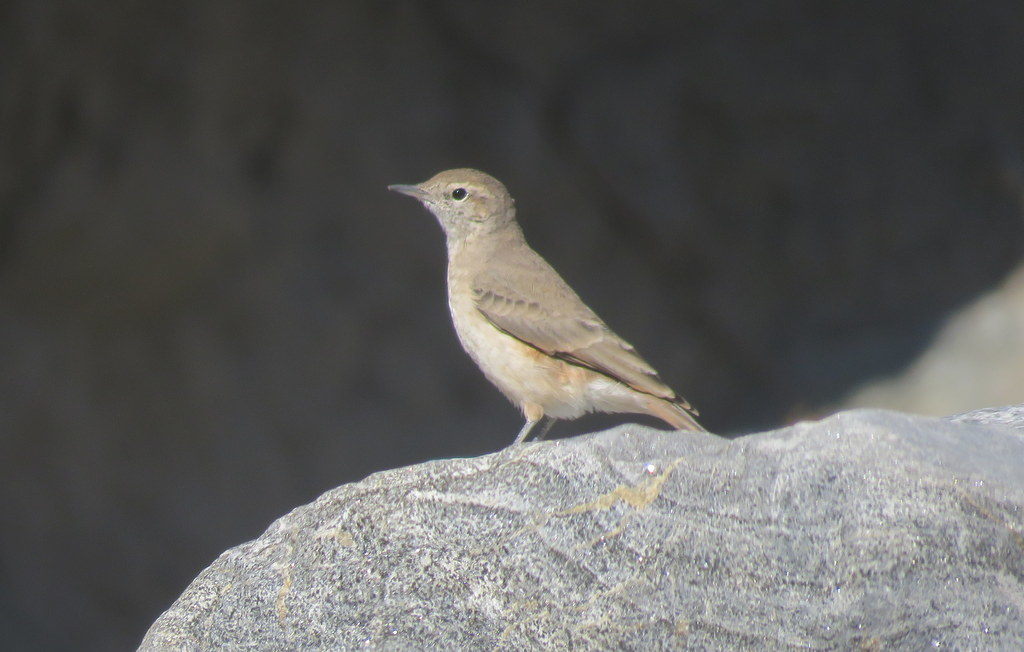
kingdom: Animalia
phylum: Chordata
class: Aves
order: Passeriformes
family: Furnariidae
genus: Geositta
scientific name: Geositta rufipennis
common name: Rufous-banded miner
